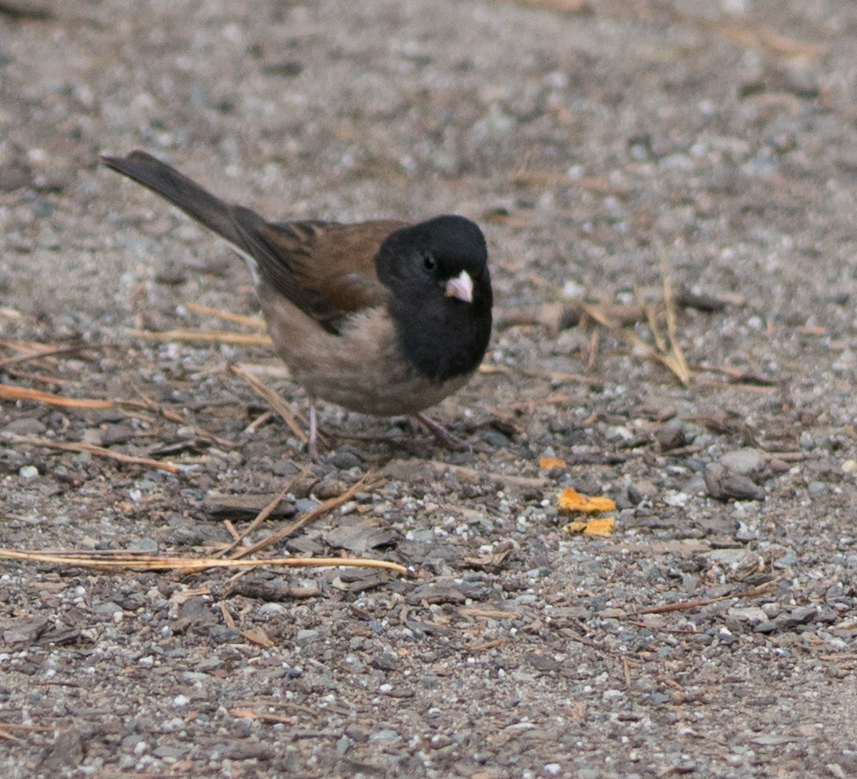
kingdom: Animalia
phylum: Chordata
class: Aves
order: Passeriformes
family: Passerellidae
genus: Junco
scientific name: Junco hyemalis
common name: Dark-eyed junco
